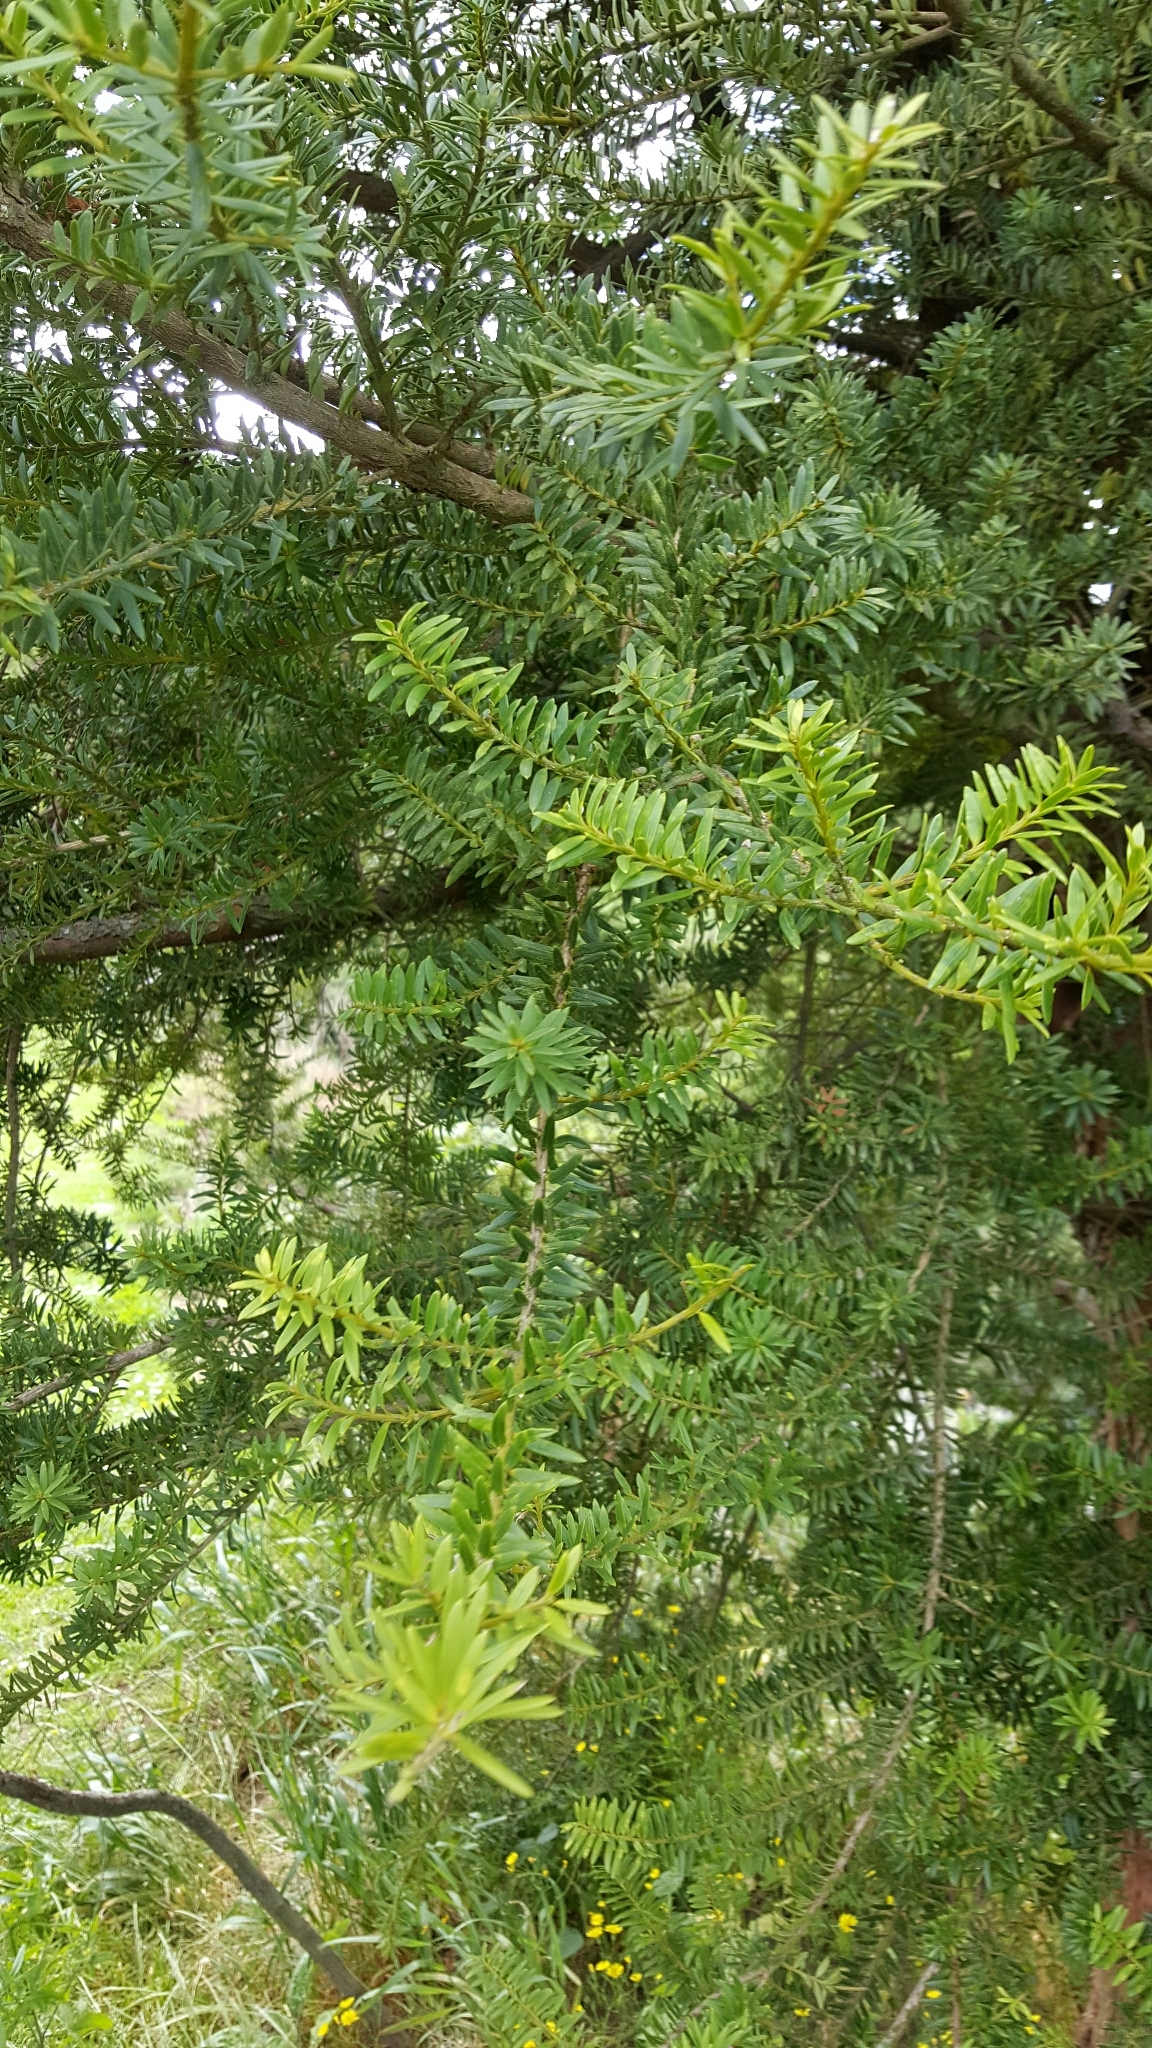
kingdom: Plantae
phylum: Tracheophyta
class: Pinopsida
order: Pinales
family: Podocarpaceae
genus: Podocarpus
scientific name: Podocarpus totara
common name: Totara
